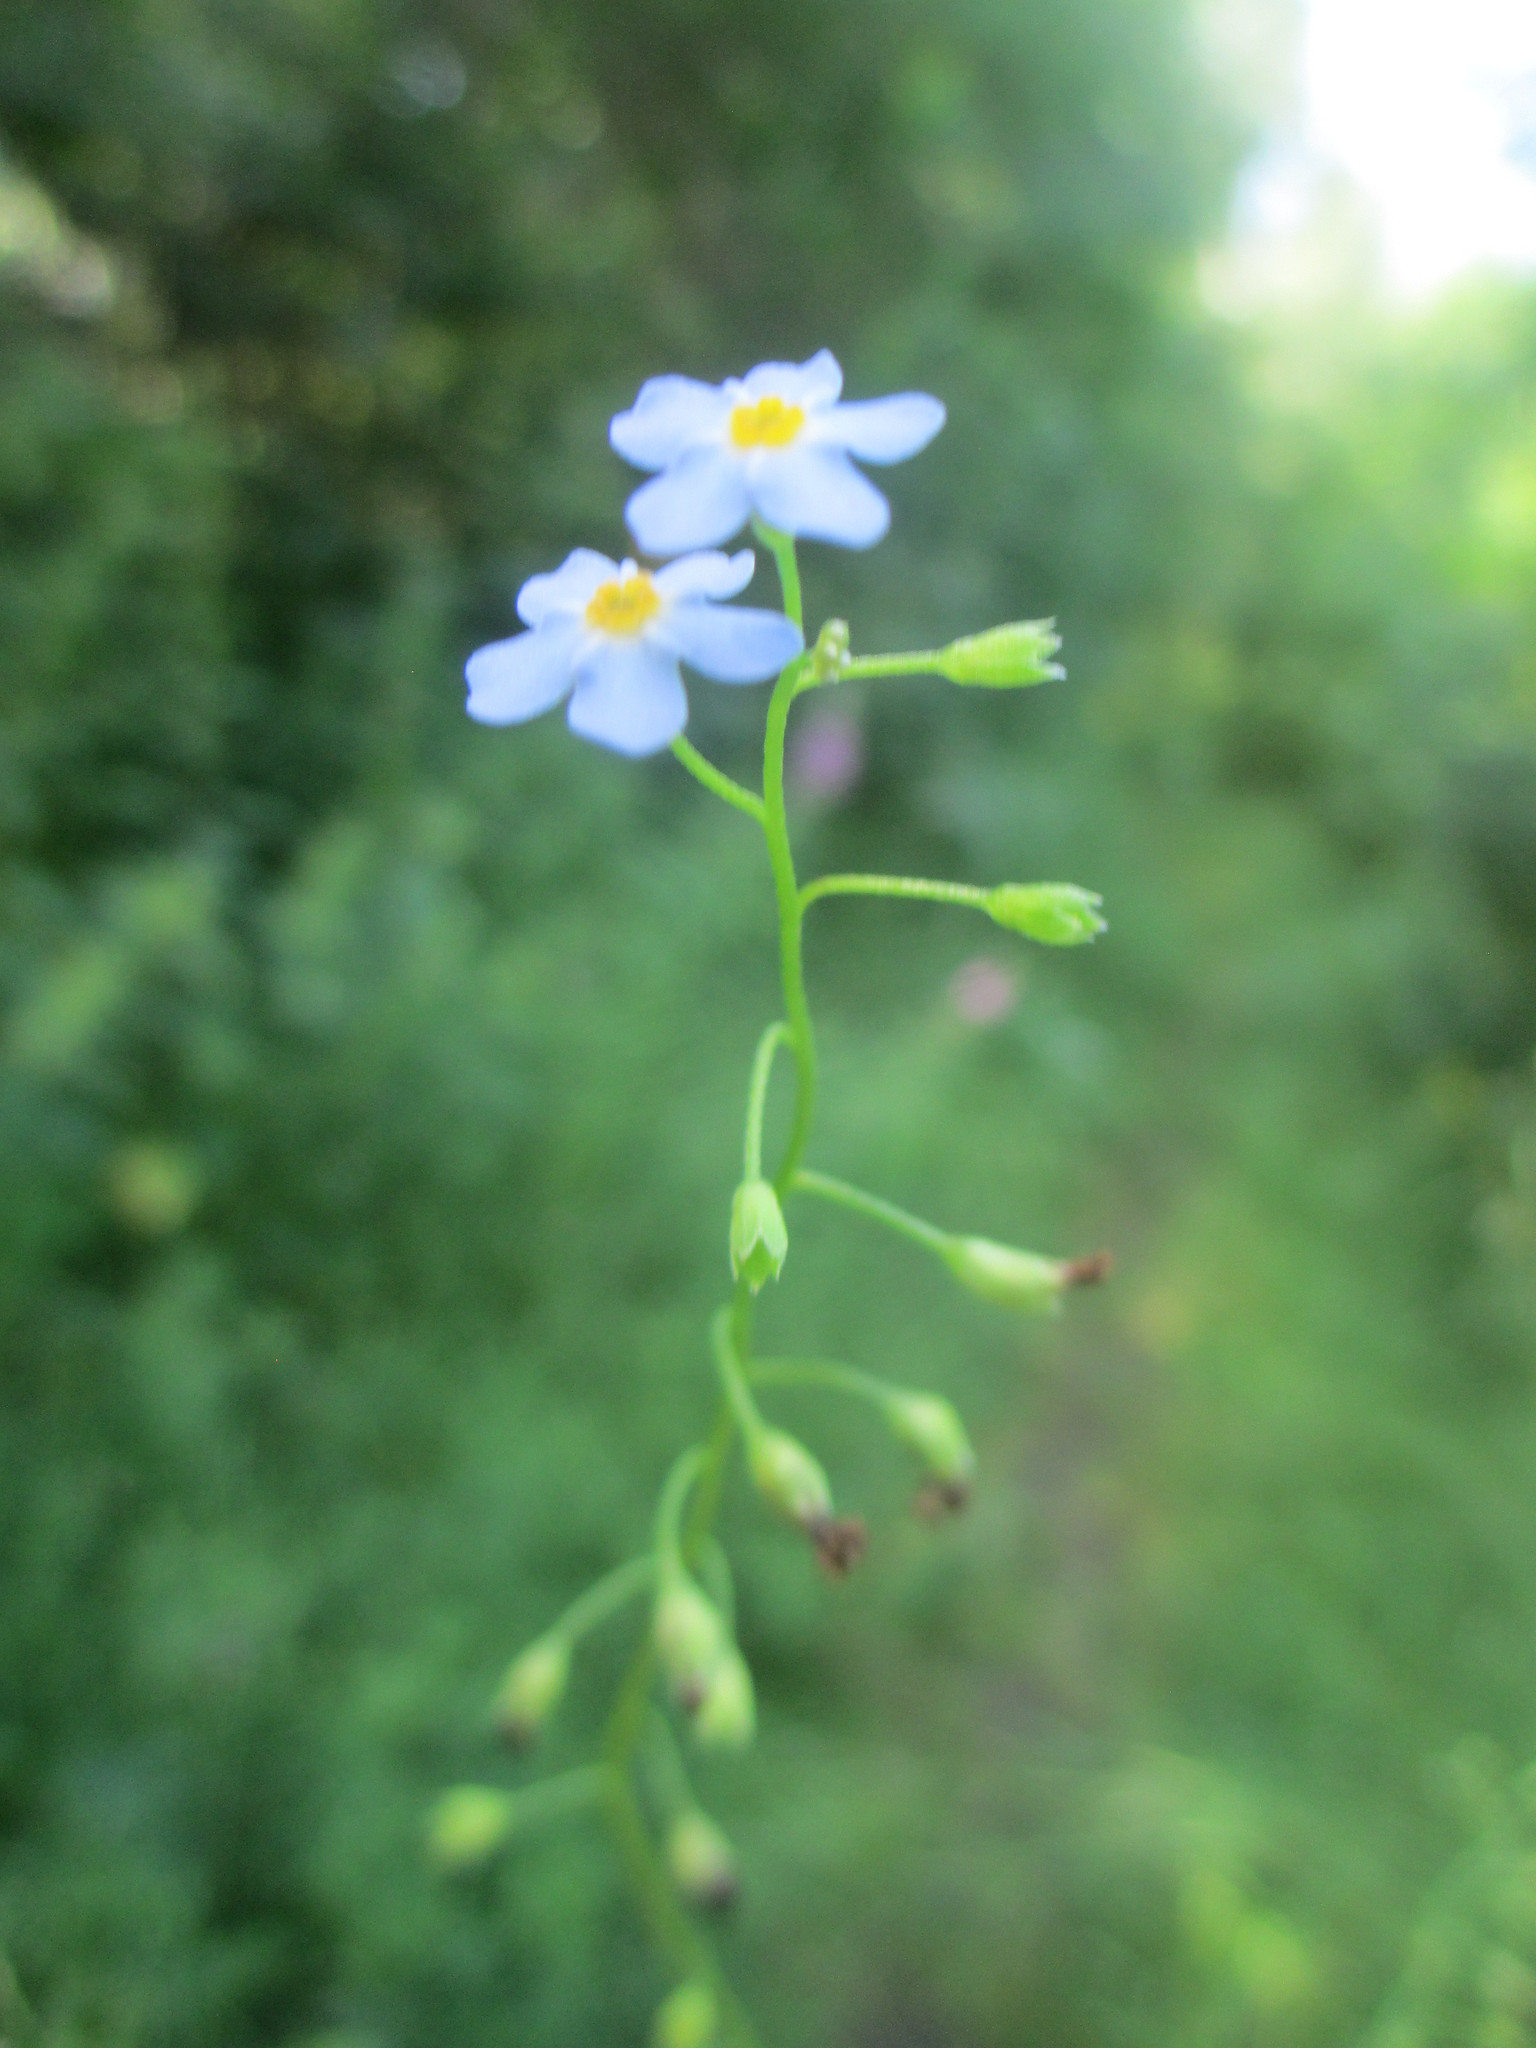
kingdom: Plantae
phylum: Tracheophyta
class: Magnoliopsida
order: Boraginales
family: Boraginaceae
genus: Myosotis
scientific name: Myosotis scorpioides
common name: Water forget-me-not
